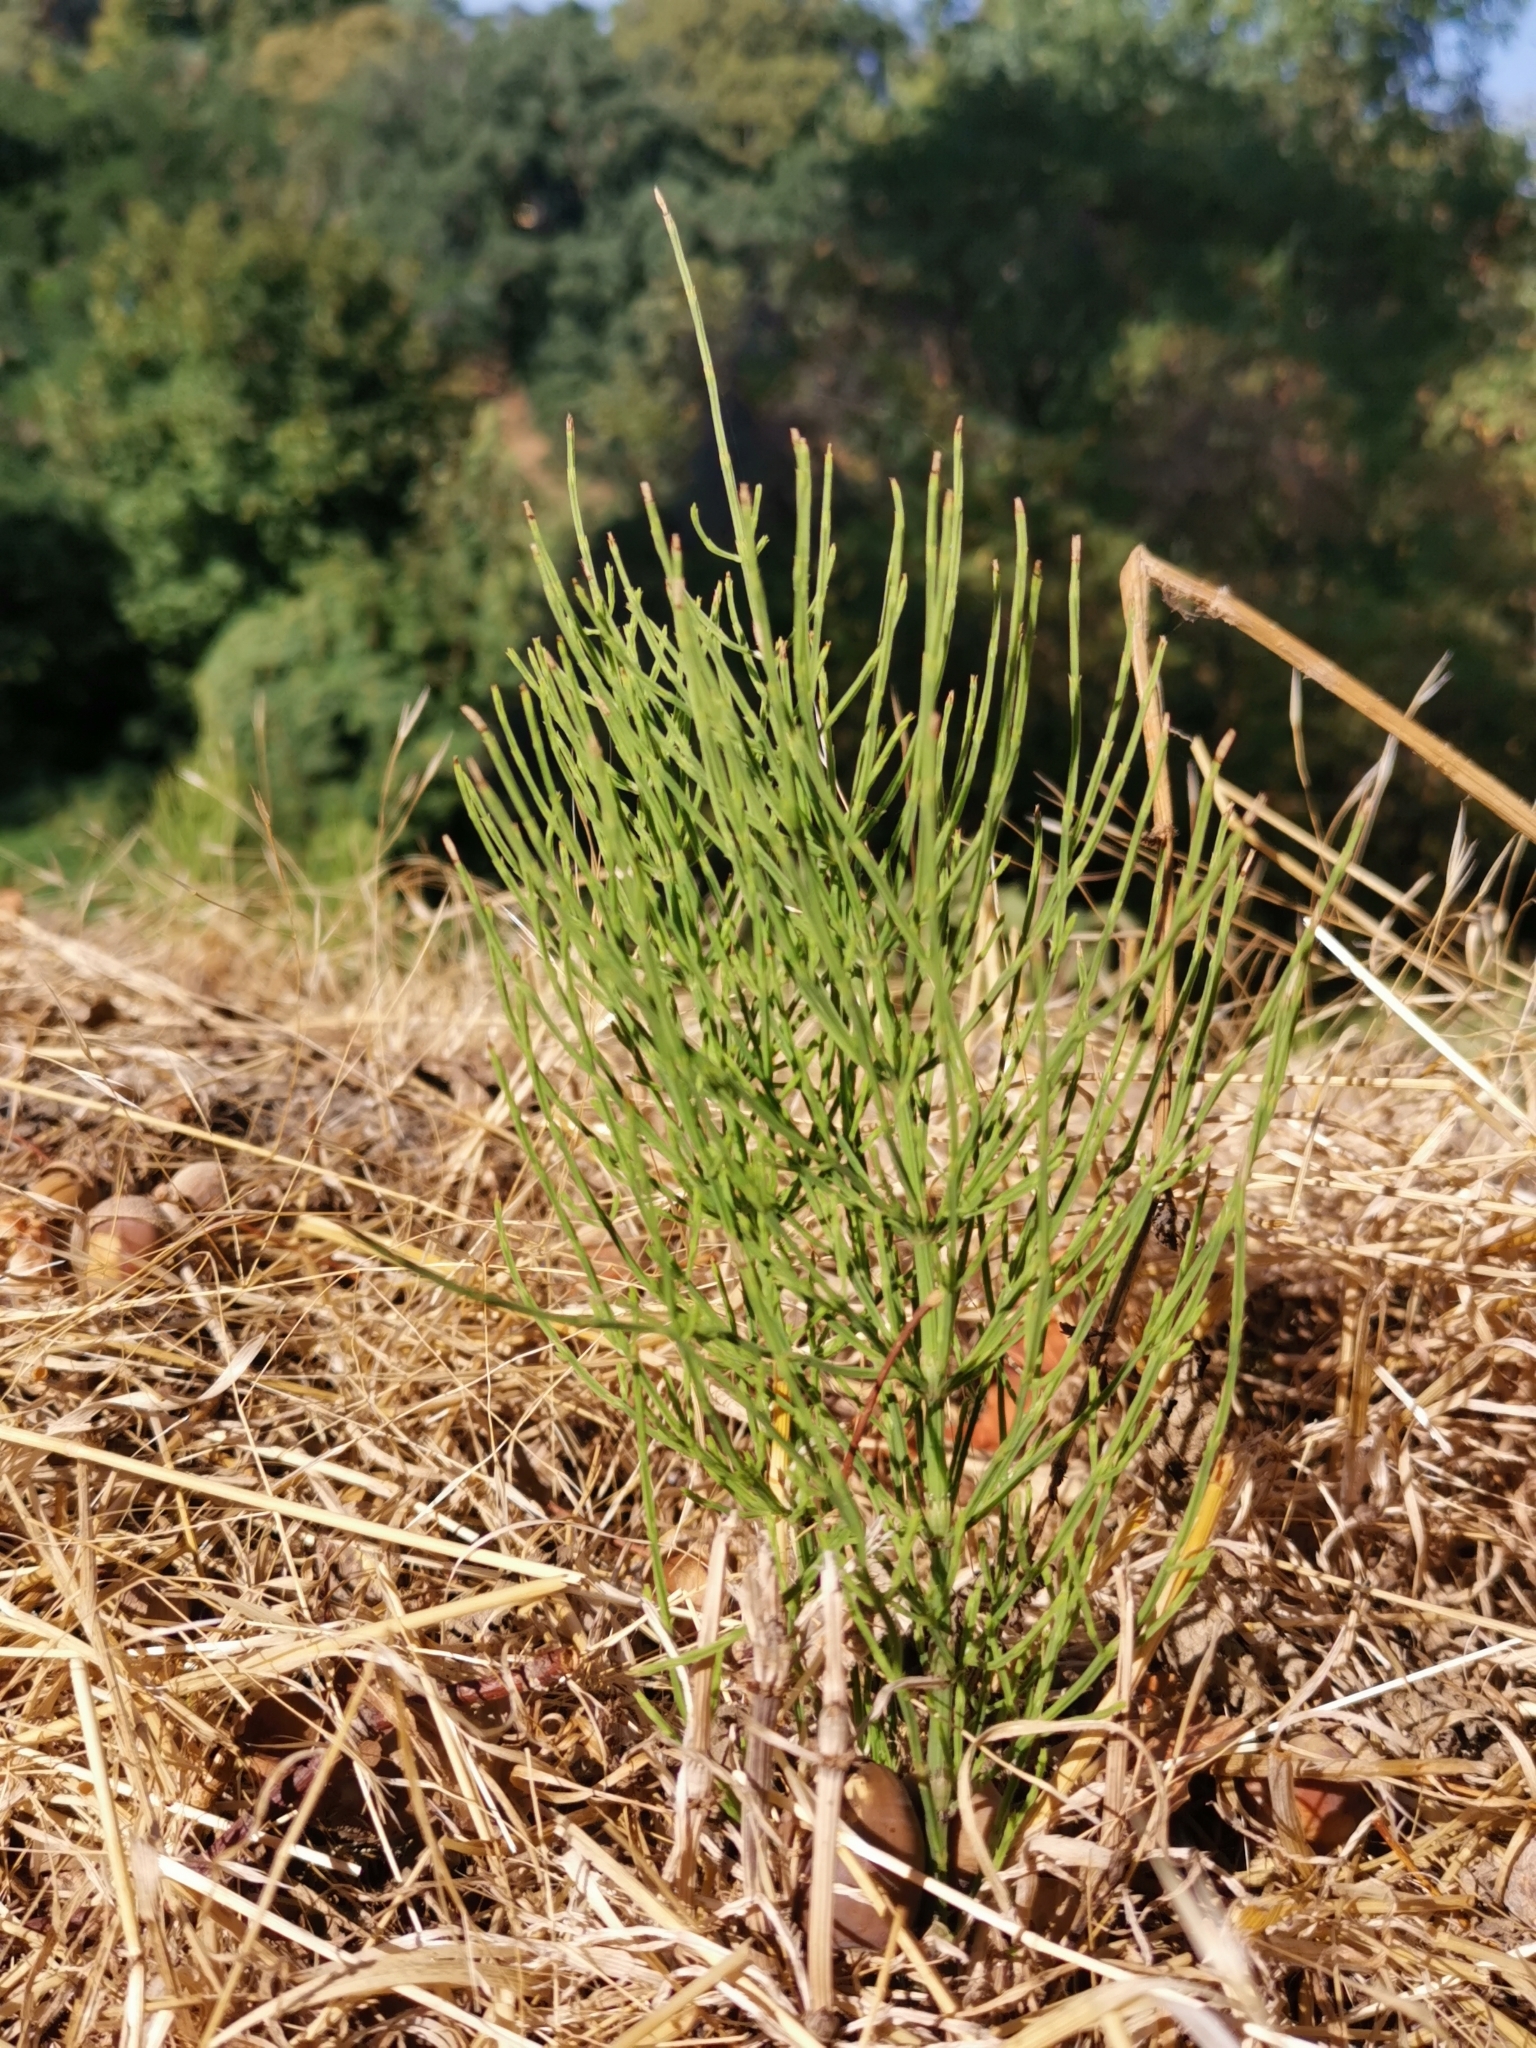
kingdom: Plantae
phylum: Tracheophyta
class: Polypodiopsida
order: Equisetales
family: Equisetaceae
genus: Equisetum
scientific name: Equisetum arvense
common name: Field horsetail
